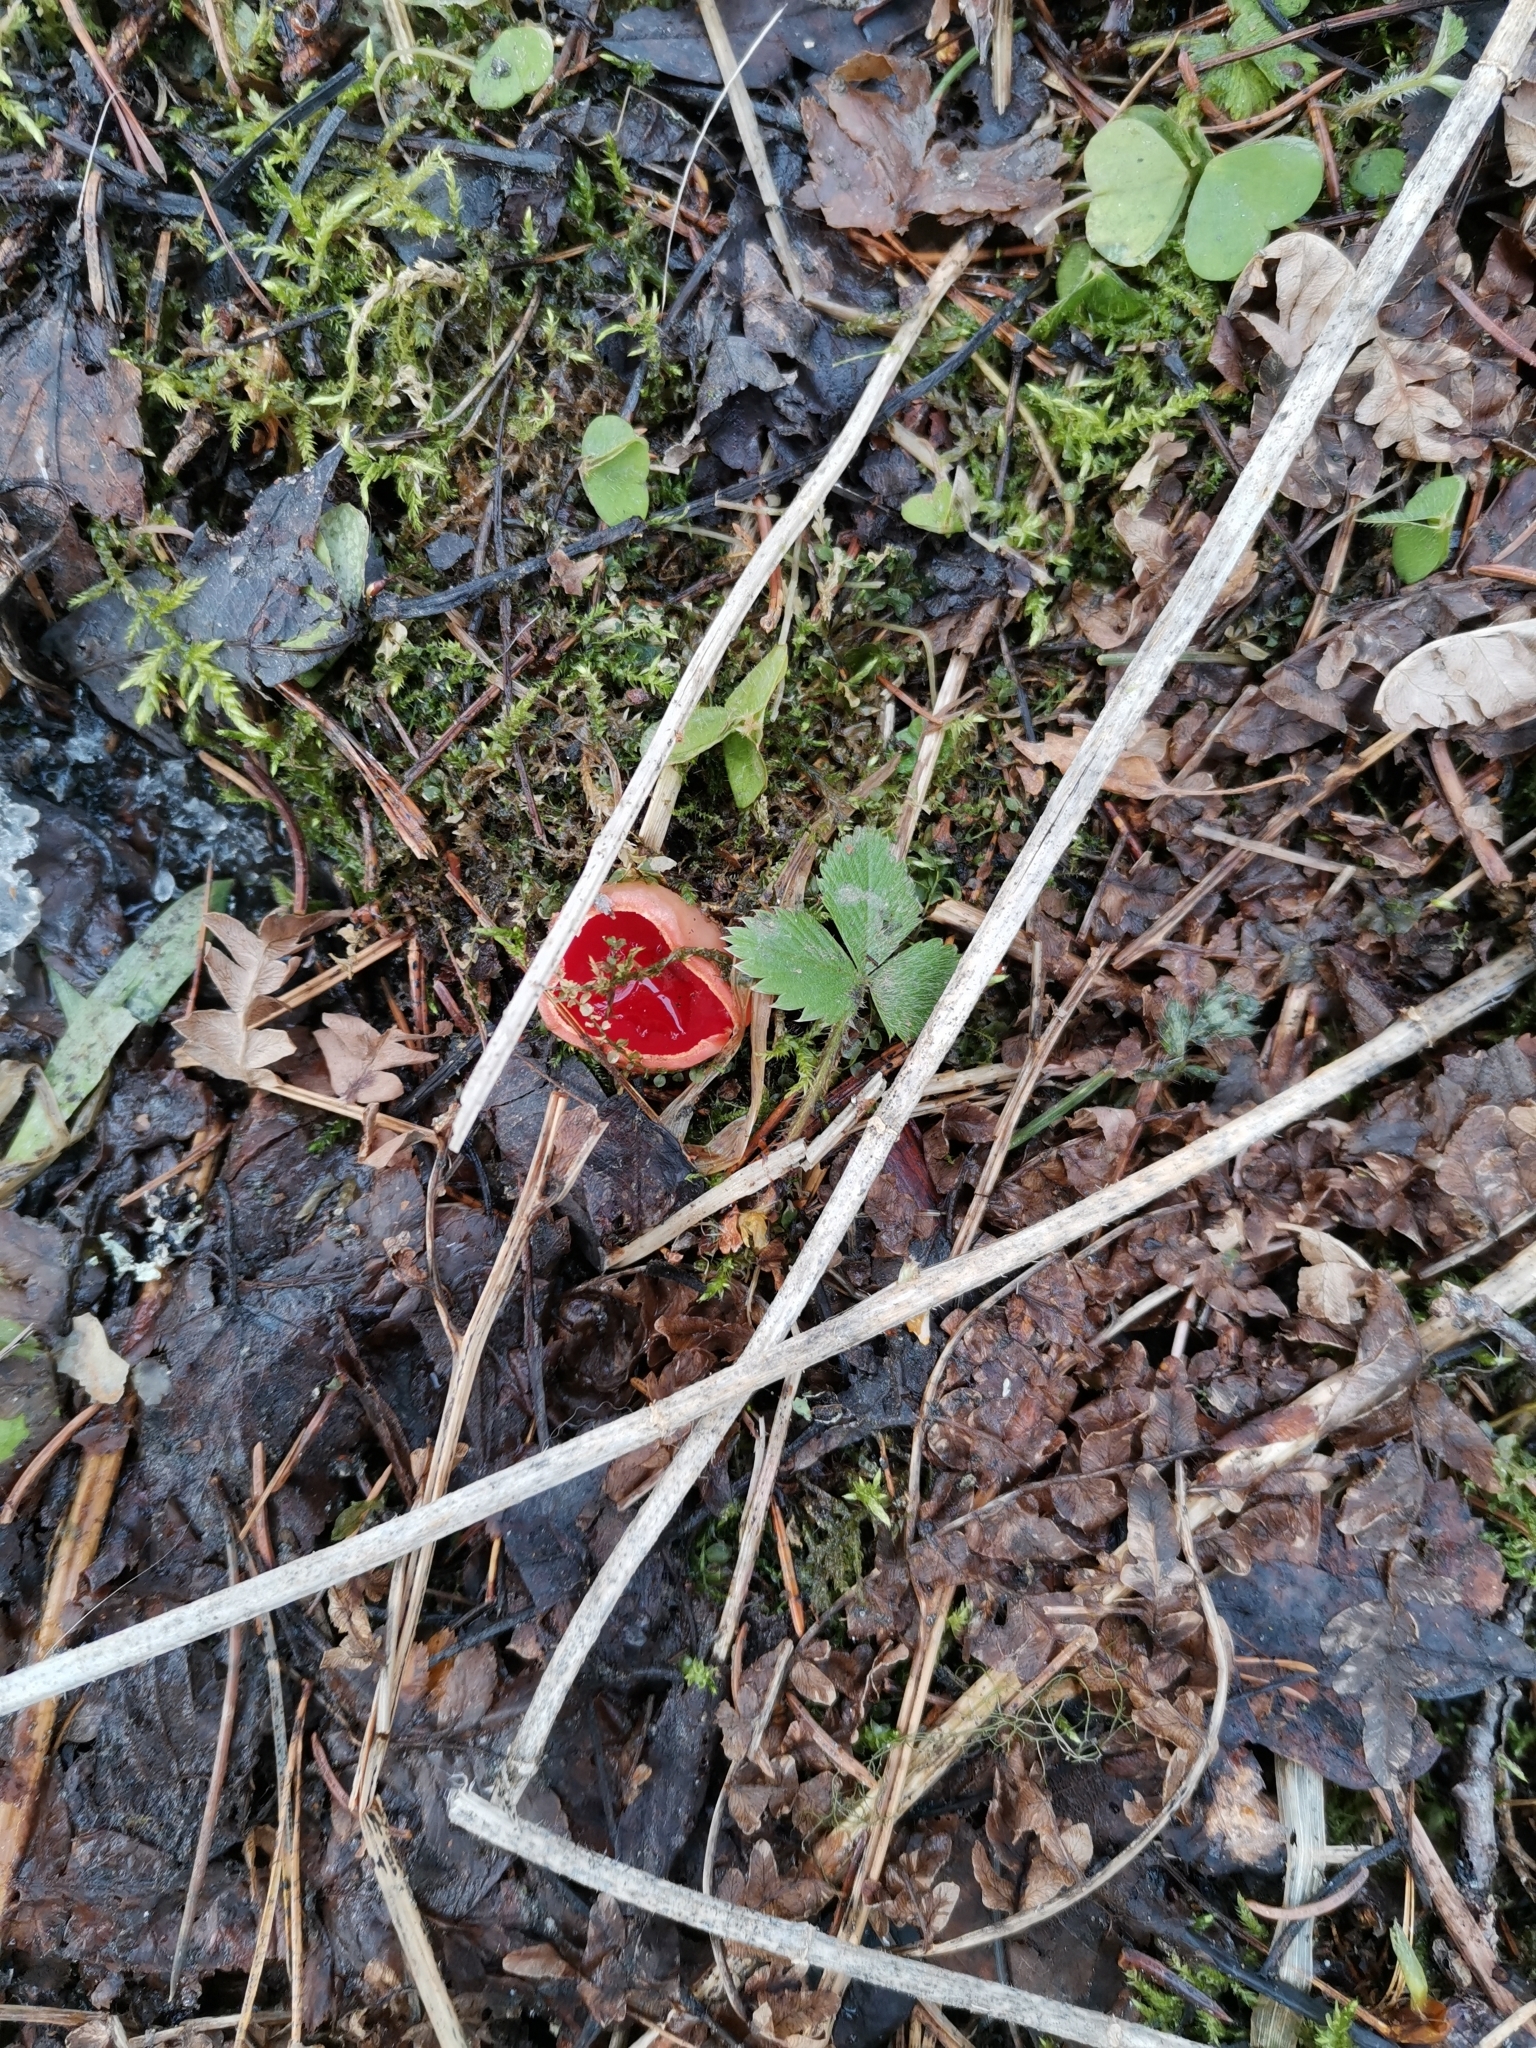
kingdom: Fungi
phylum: Ascomycota
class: Pezizomycetes
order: Pezizales
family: Sarcoscyphaceae
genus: Sarcoscypha
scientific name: Sarcoscypha austriaca
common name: Scarlet elfcup
